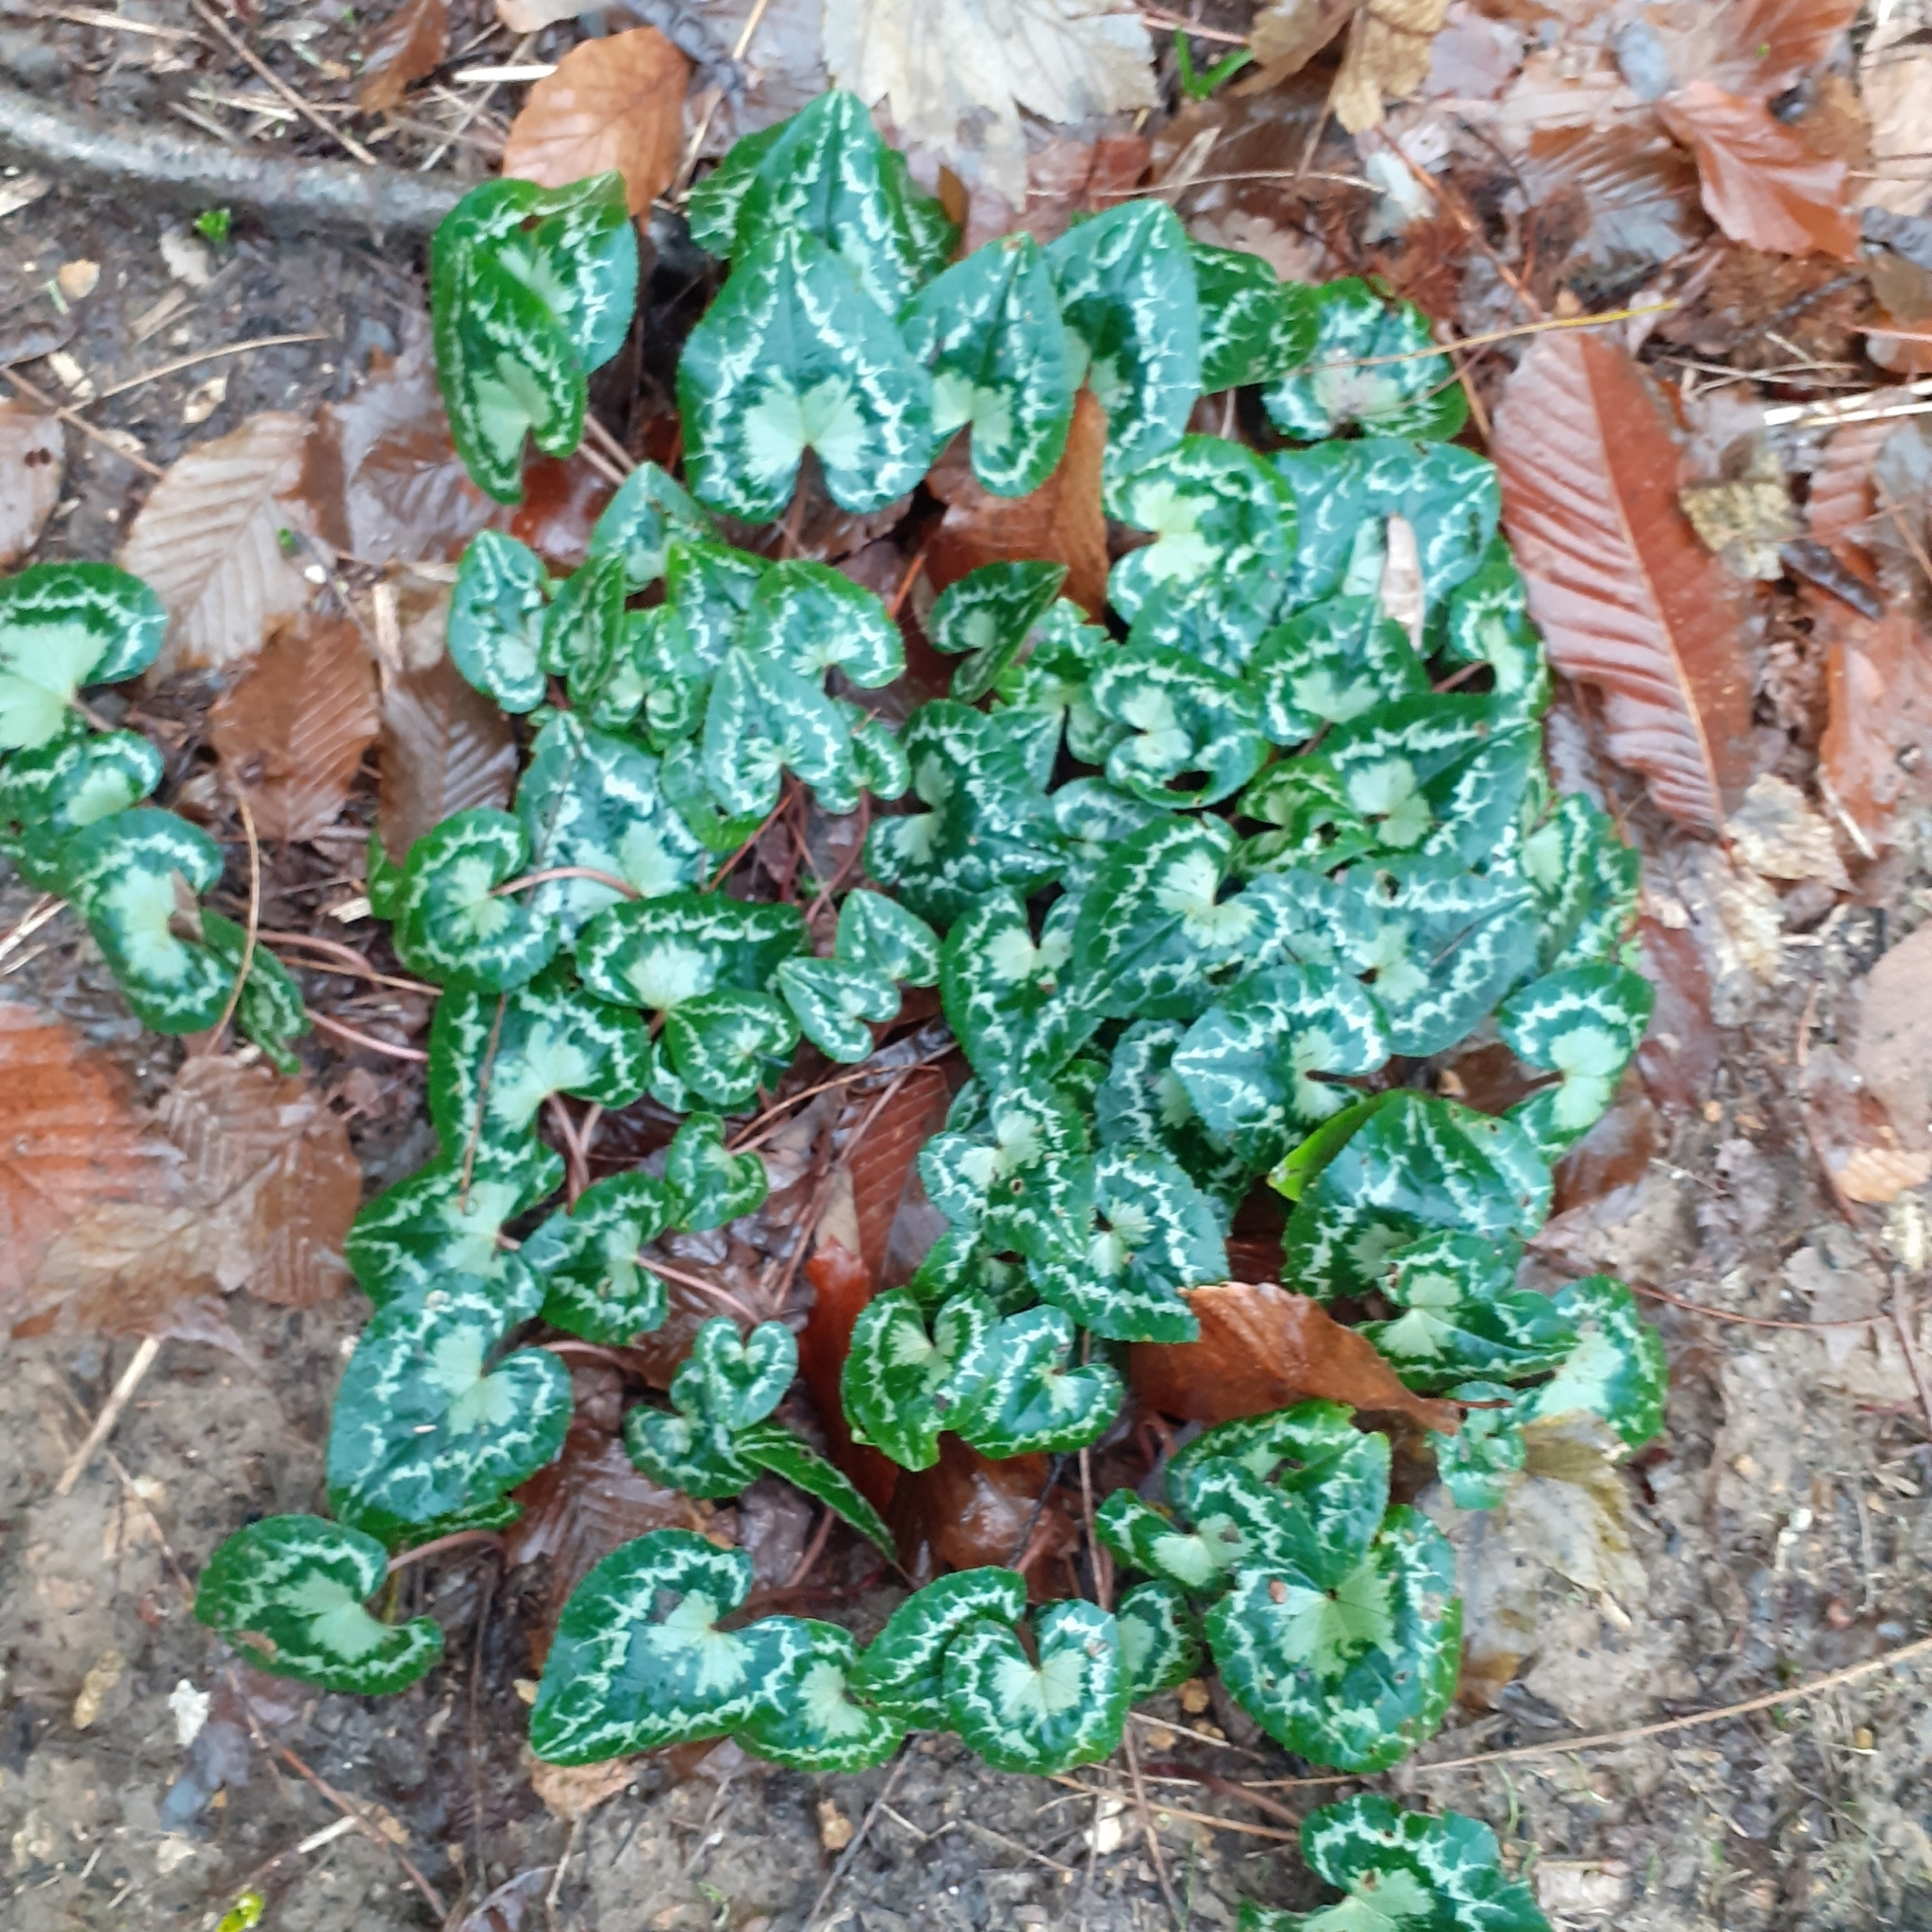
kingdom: Plantae
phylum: Tracheophyta
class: Magnoliopsida
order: Ericales
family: Primulaceae
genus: Cyclamen
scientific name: Cyclamen hederifolium
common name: Sowbread
